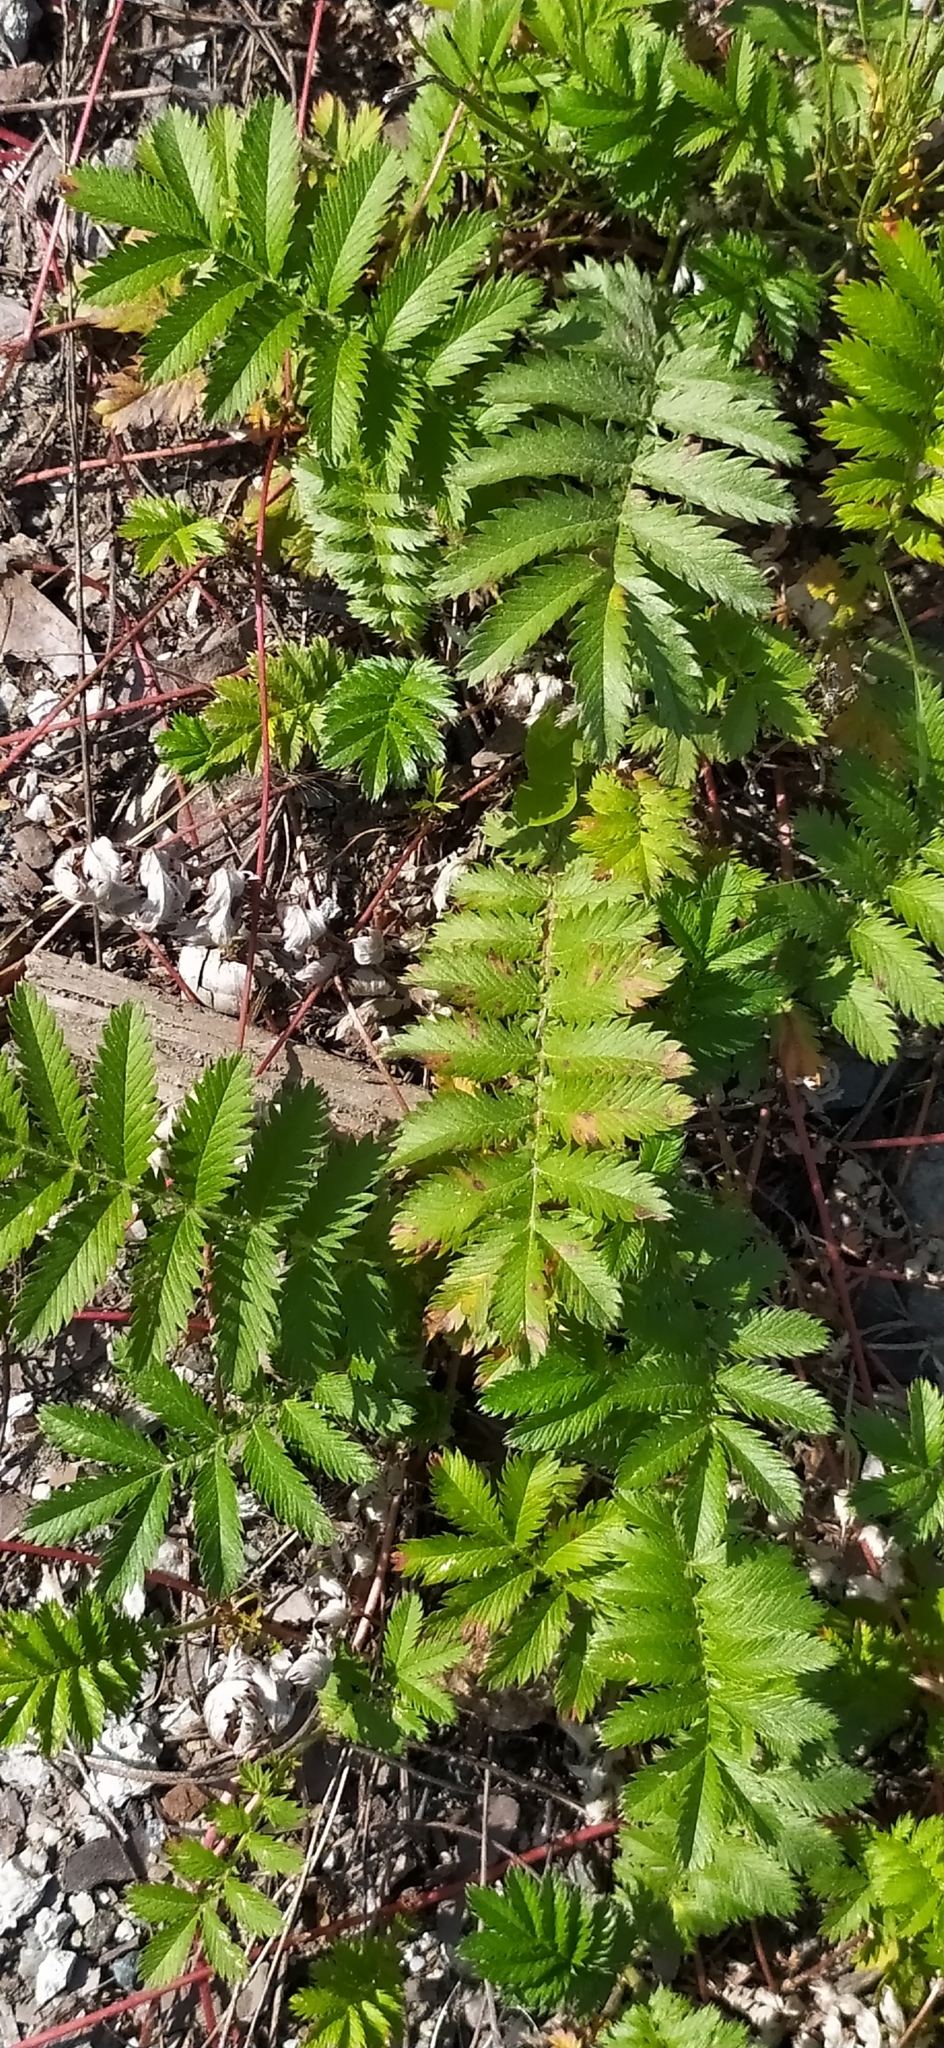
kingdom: Plantae
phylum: Tracheophyta
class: Magnoliopsida
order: Rosales
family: Rosaceae
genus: Argentina
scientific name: Argentina anserina
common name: Common silverweed
